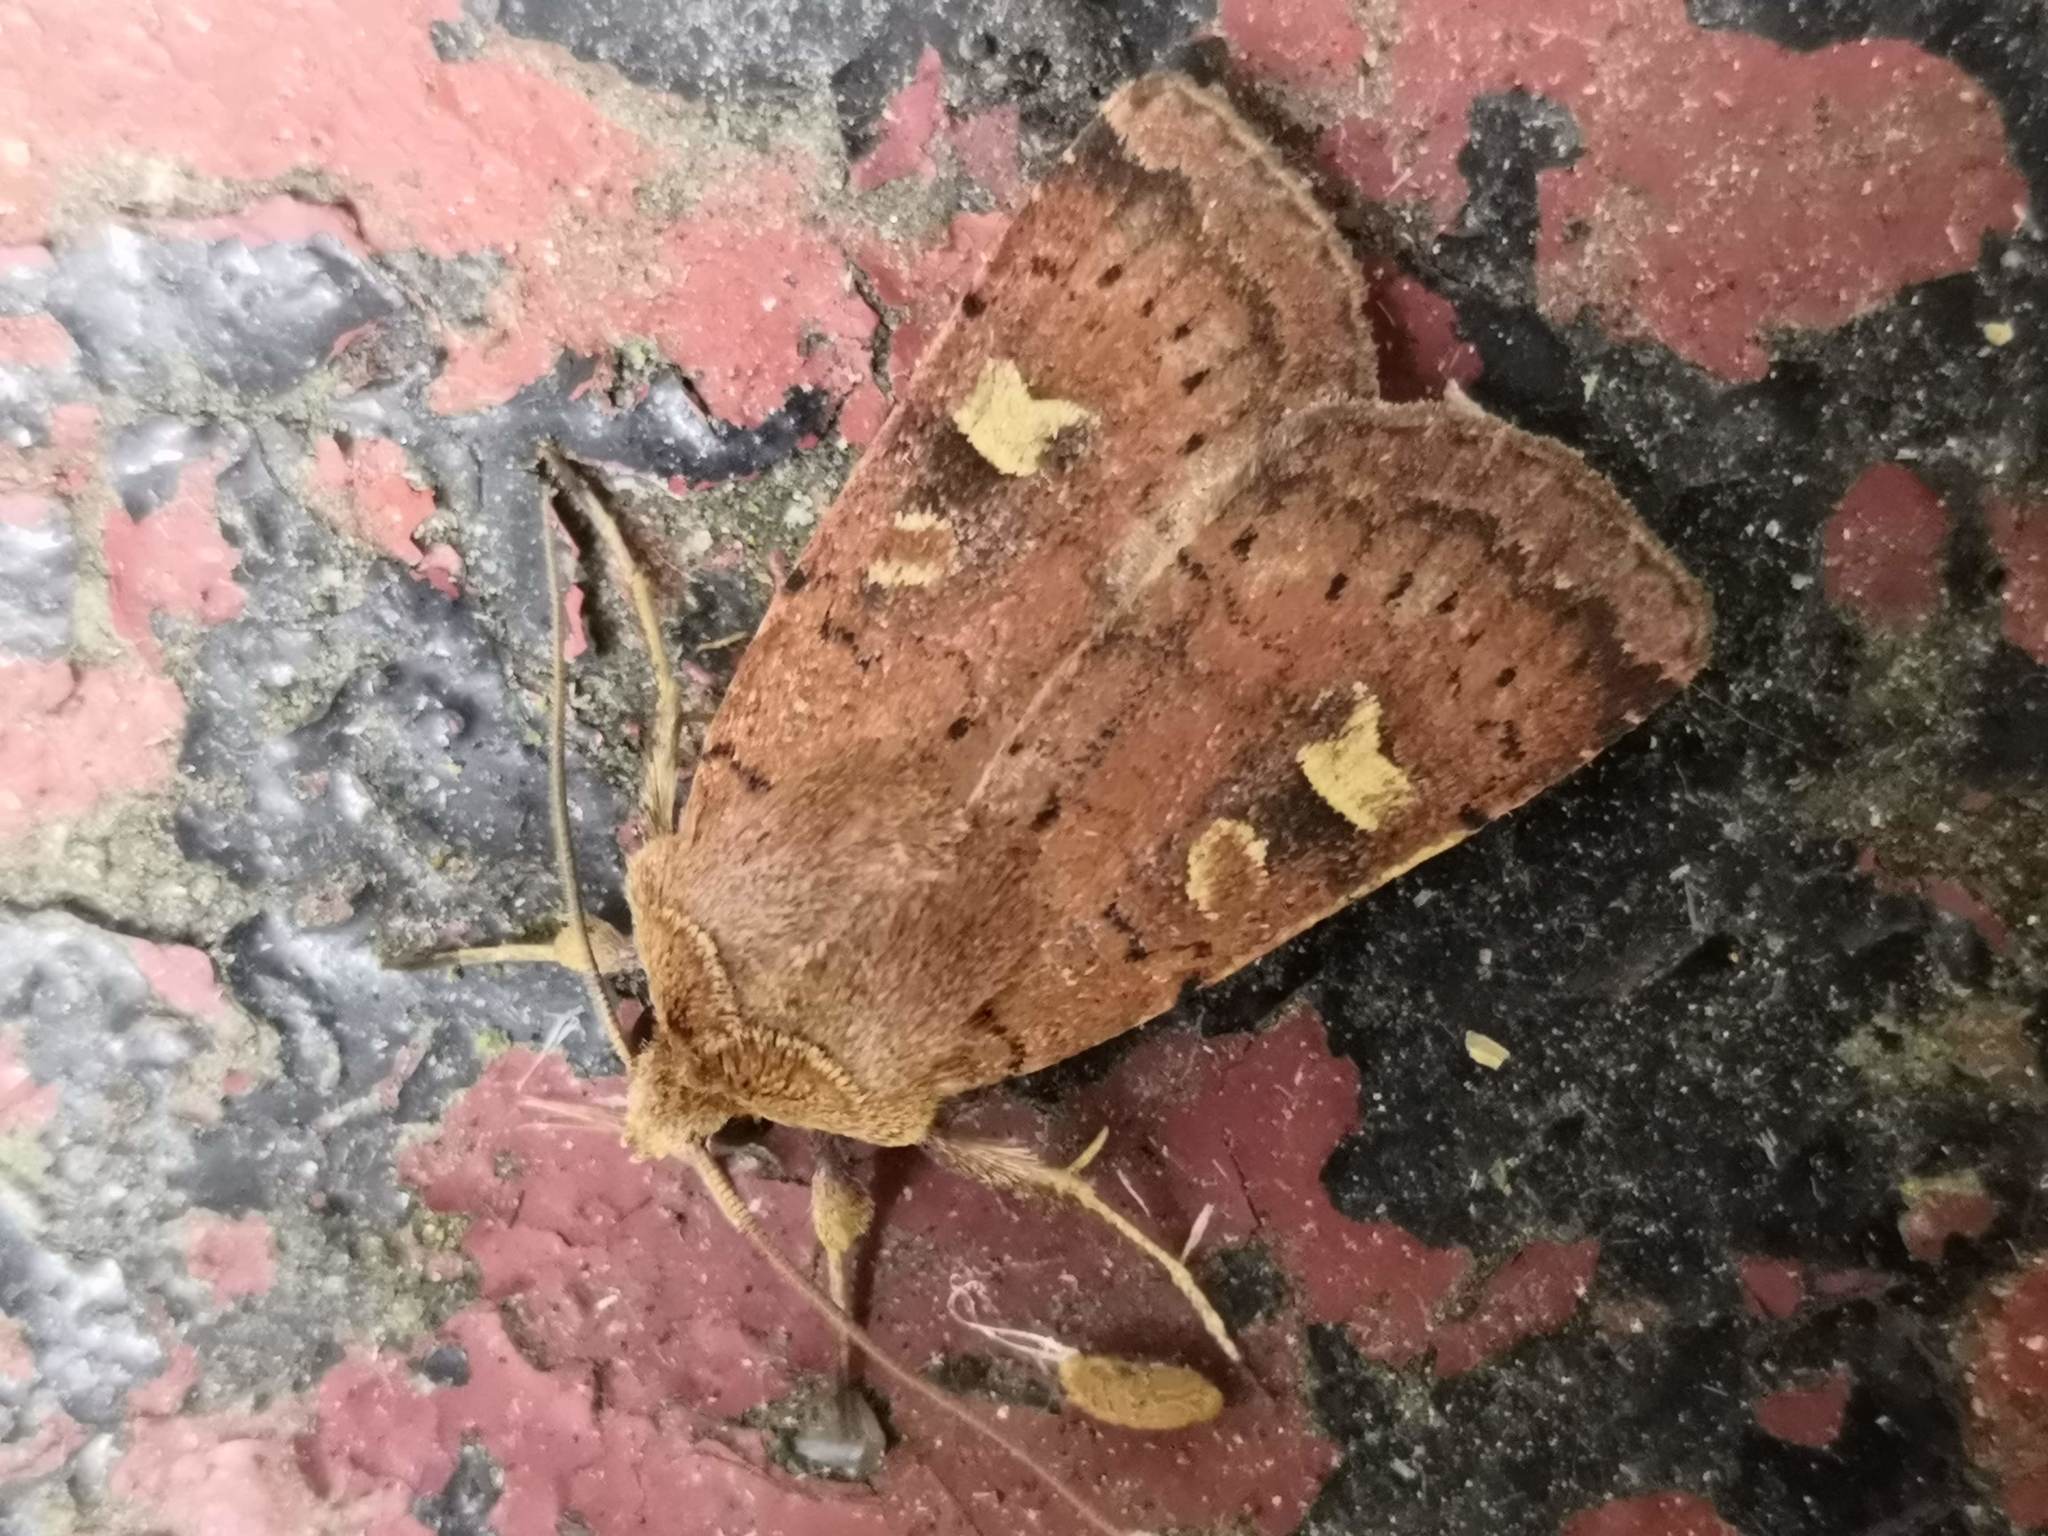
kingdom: Animalia
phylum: Arthropoda
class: Insecta
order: Lepidoptera
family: Noctuidae
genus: Xestia
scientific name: Xestia xanthographa
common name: Square-spot rustic
